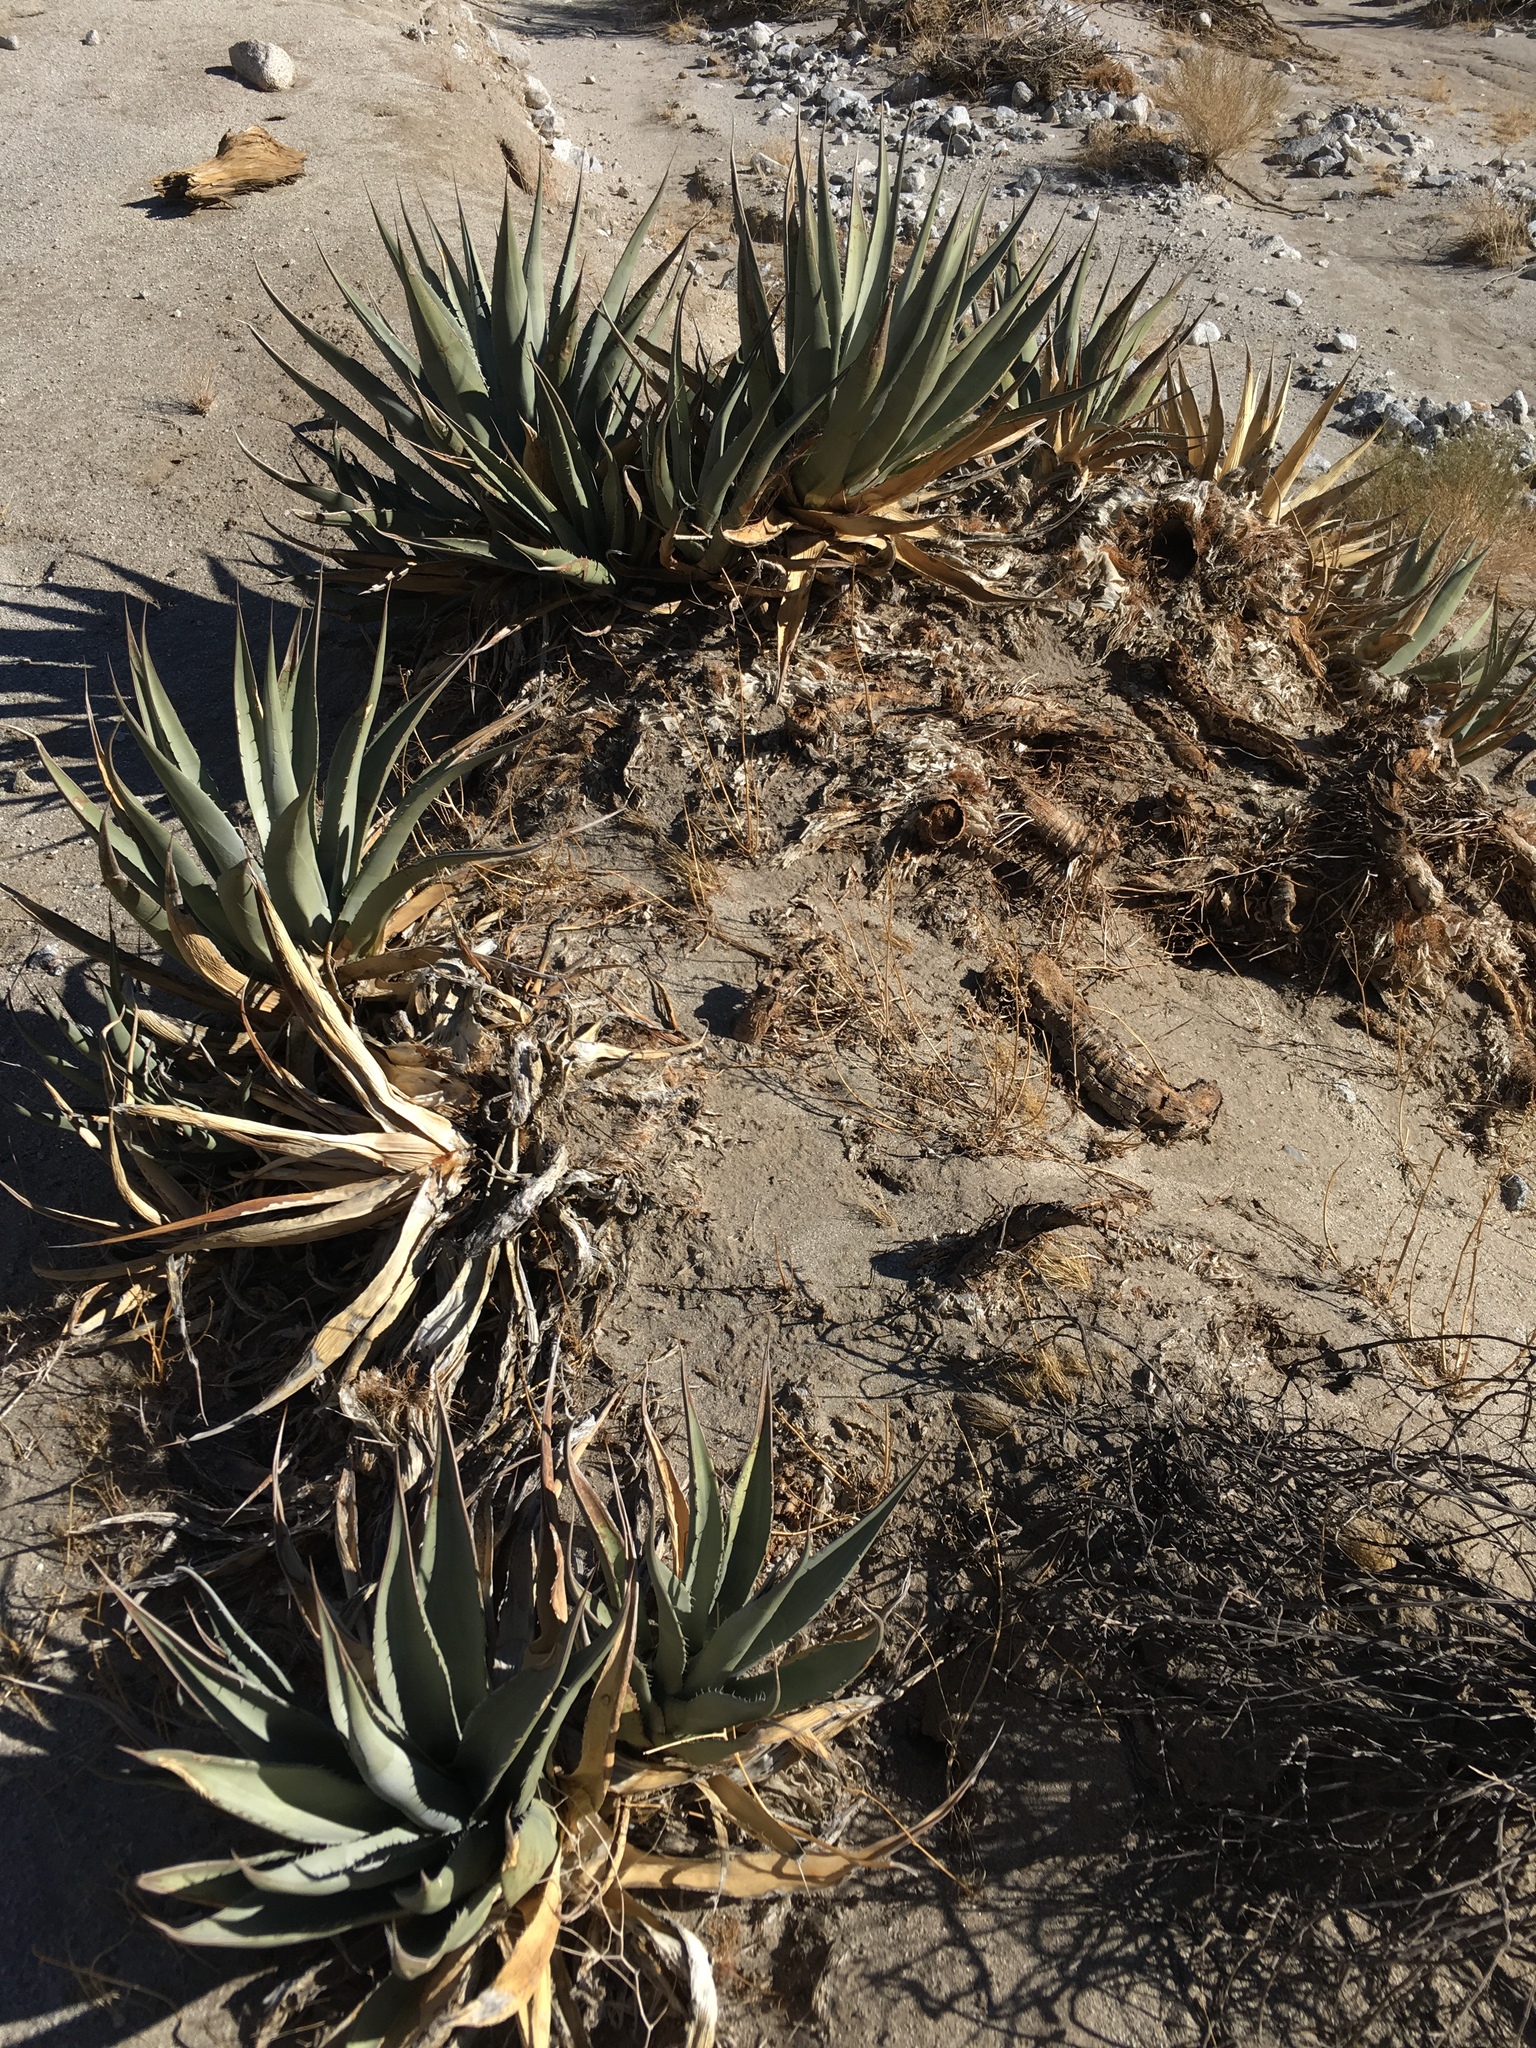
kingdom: Plantae
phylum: Tracheophyta
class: Liliopsida
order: Asparagales
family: Asparagaceae
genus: Agave
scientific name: Agave deserti
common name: Desert agave
